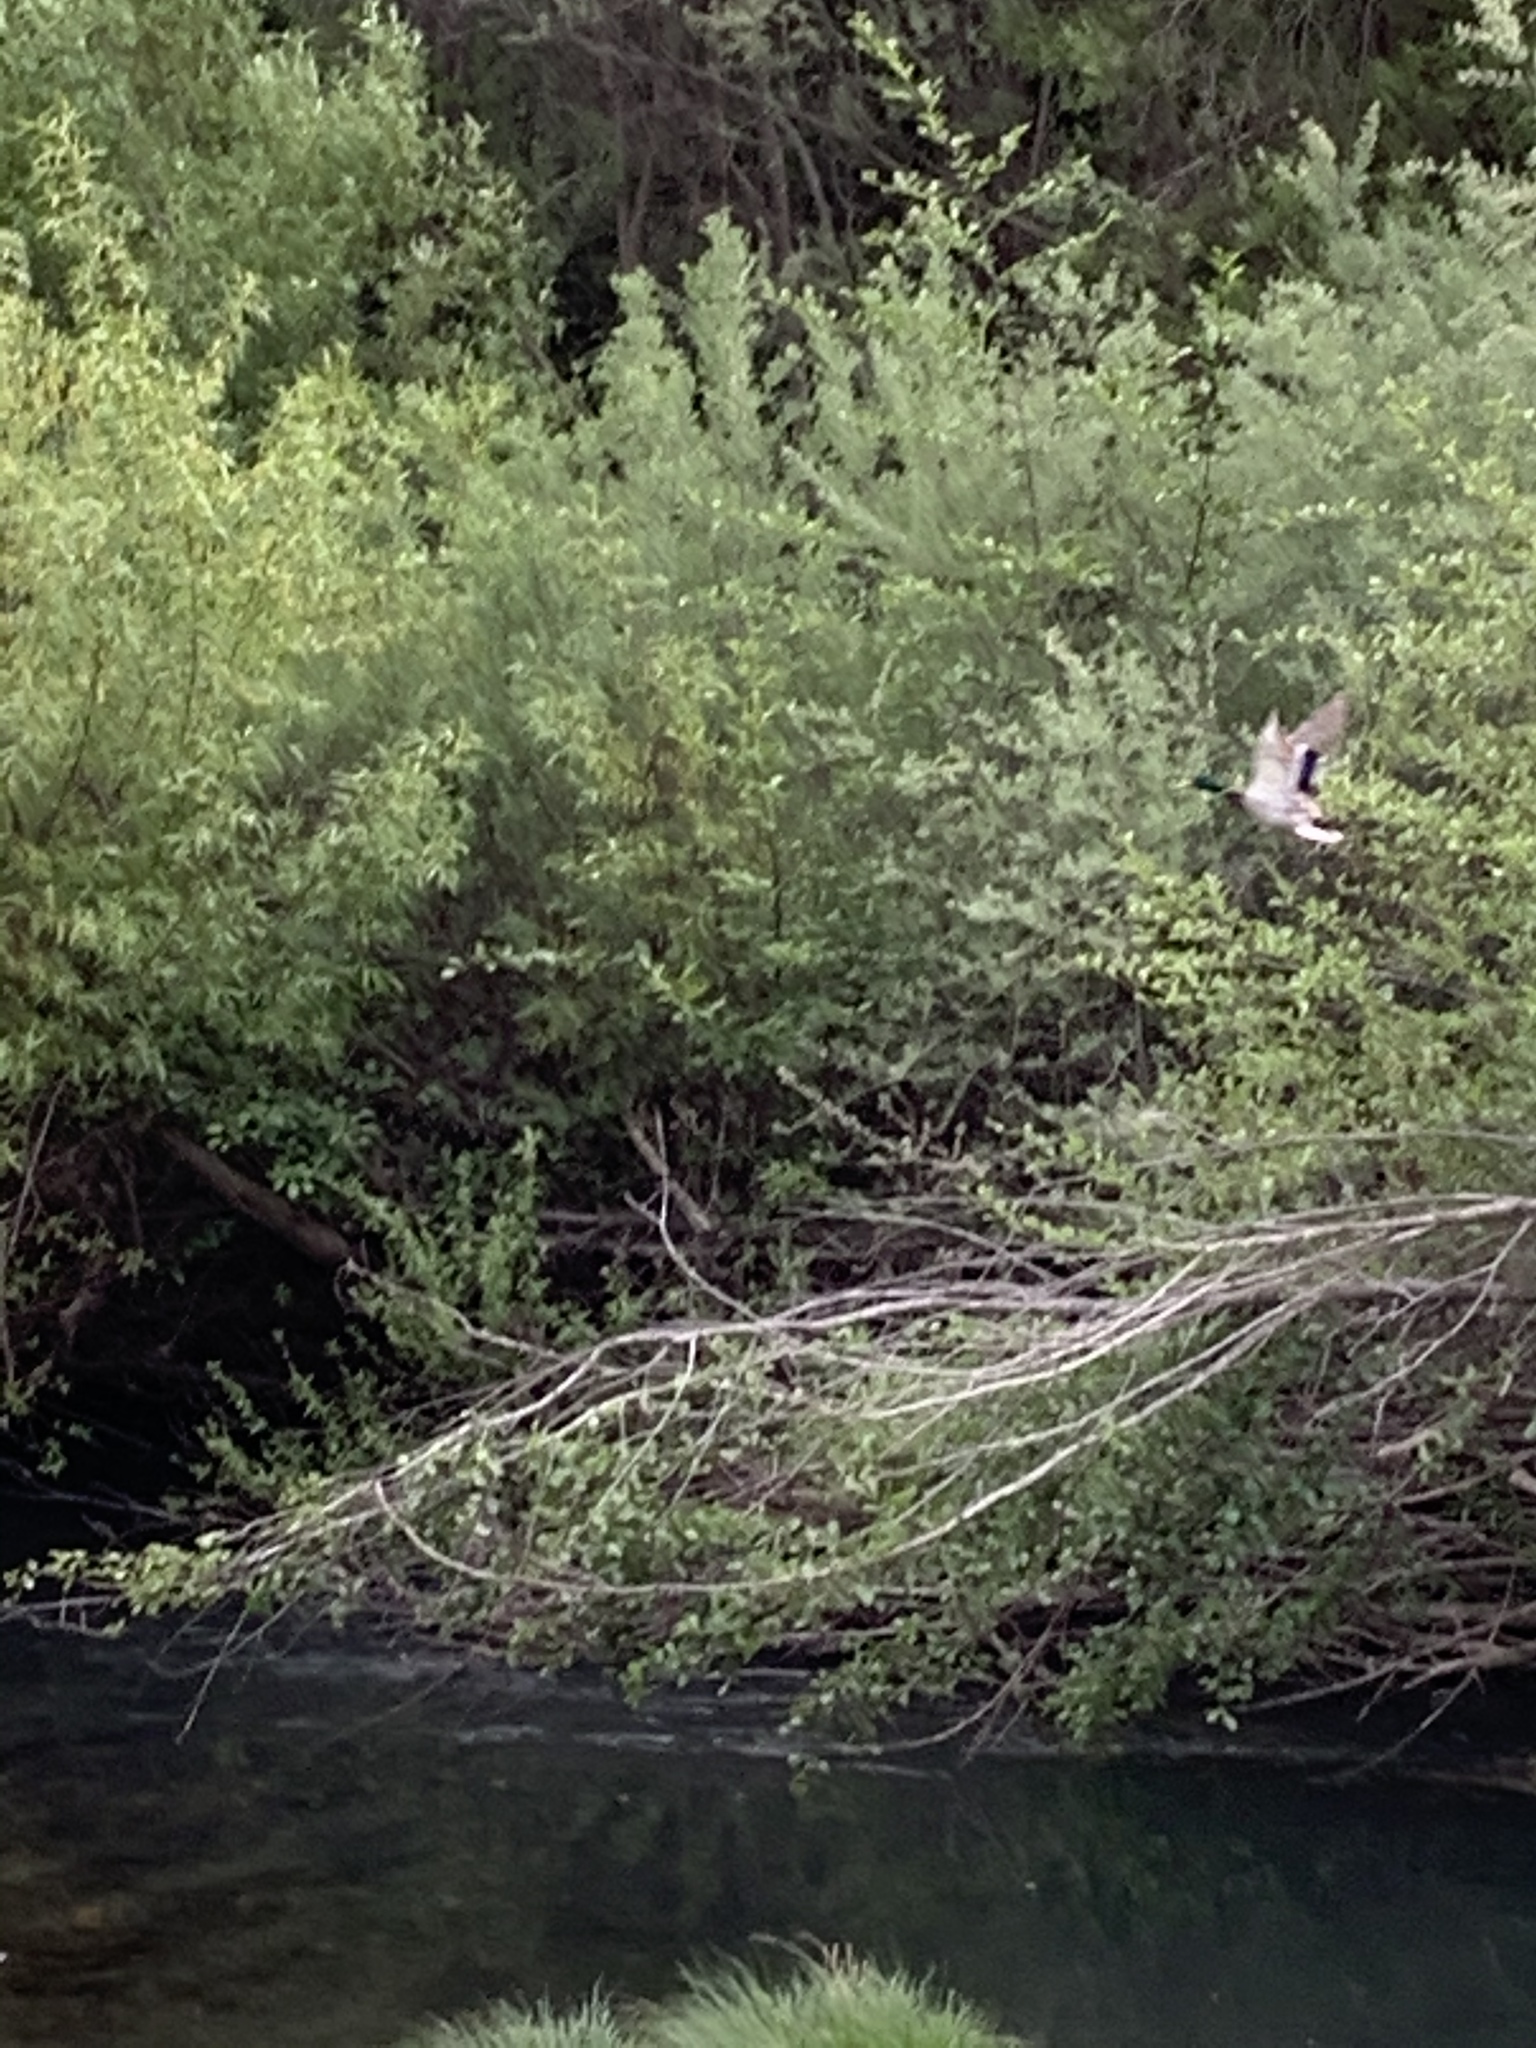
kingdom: Animalia
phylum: Chordata
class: Aves
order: Anseriformes
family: Anatidae
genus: Anas
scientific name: Anas platyrhynchos
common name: Mallard
